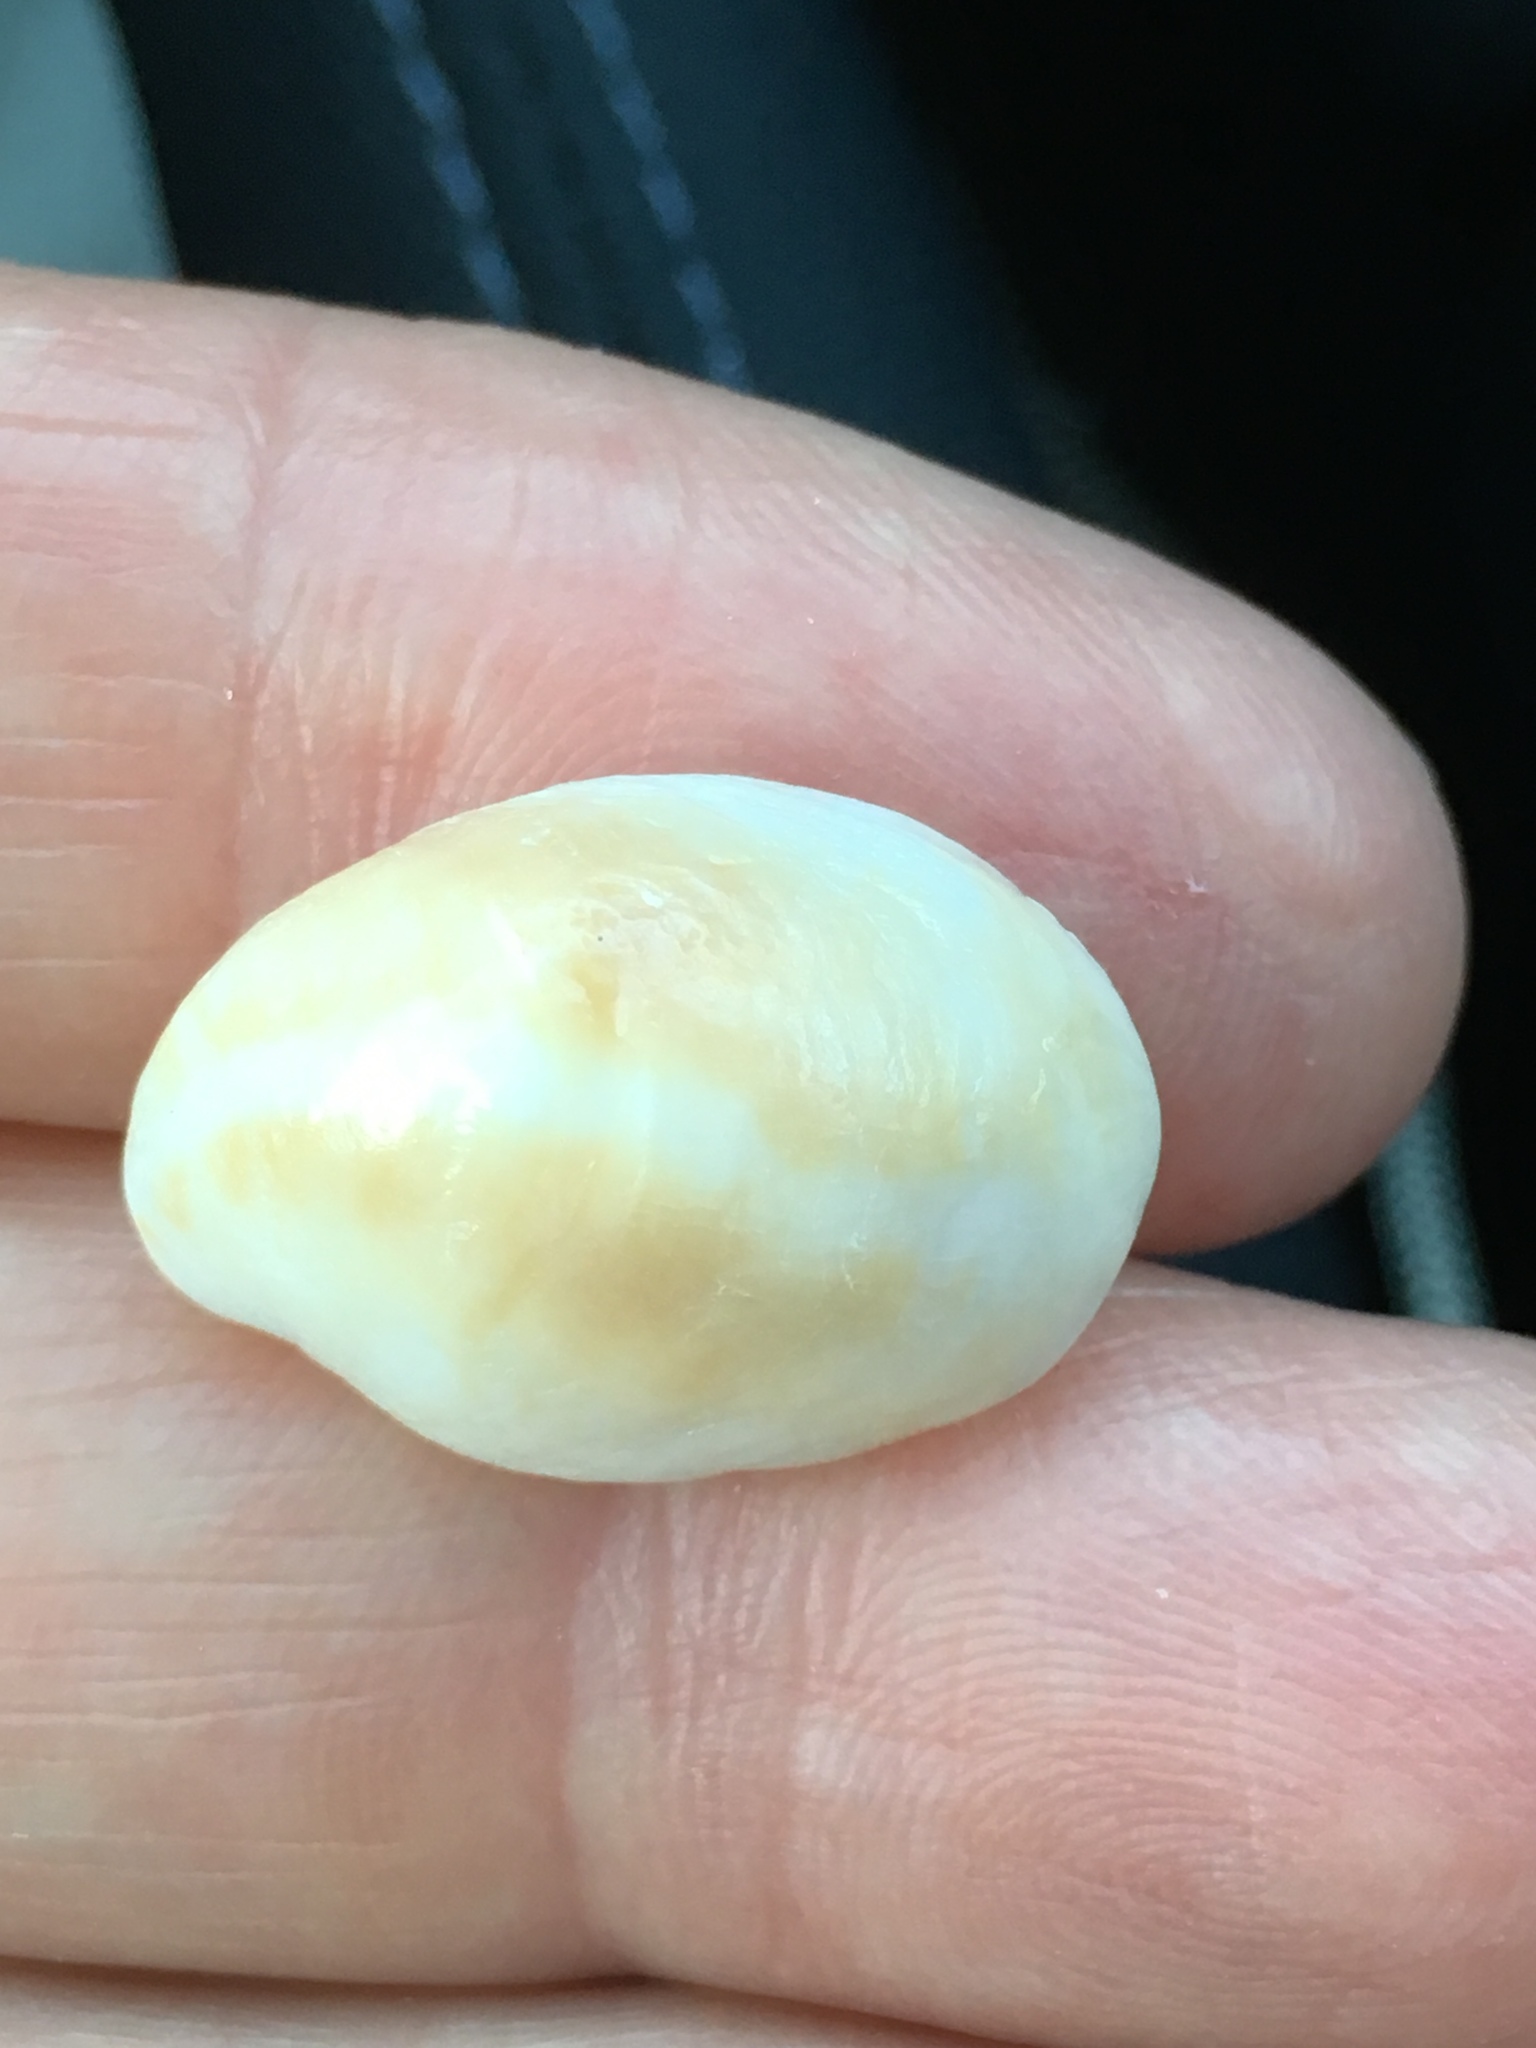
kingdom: Animalia
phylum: Mollusca
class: Gastropoda
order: Littorinimorpha
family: Calyptraeidae
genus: Crepidula
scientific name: Crepidula fornicata
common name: Slipper limpet
